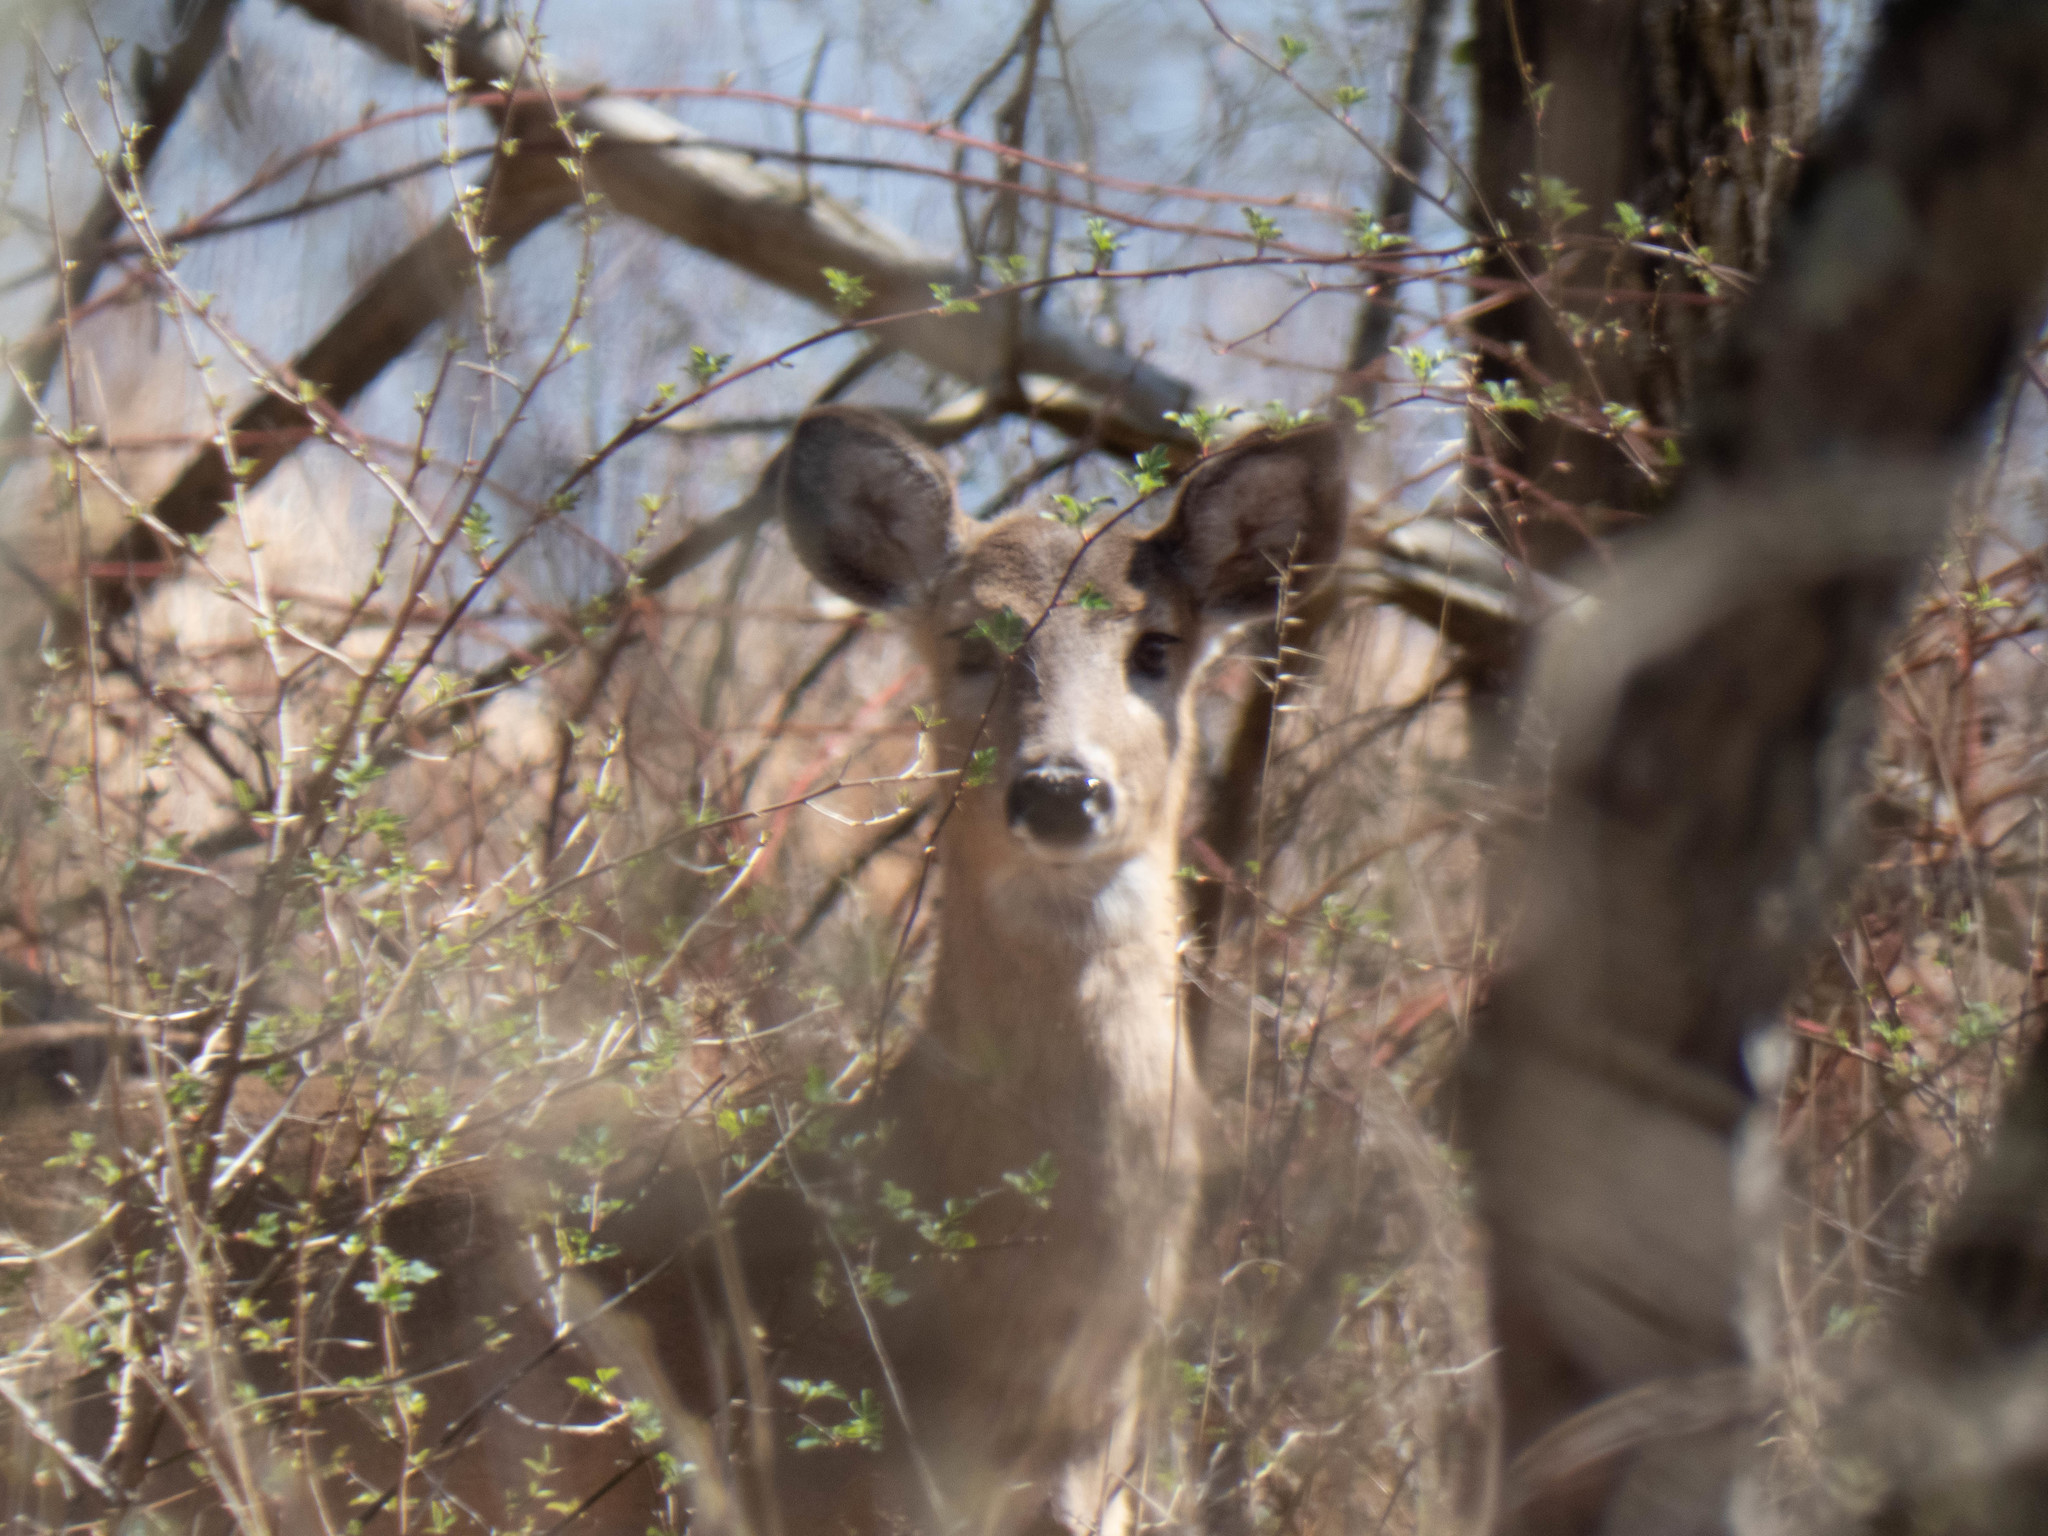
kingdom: Animalia
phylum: Chordata
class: Mammalia
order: Artiodactyla
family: Cervidae
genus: Odocoileus
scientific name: Odocoileus virginianus
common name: White-tailed deer
